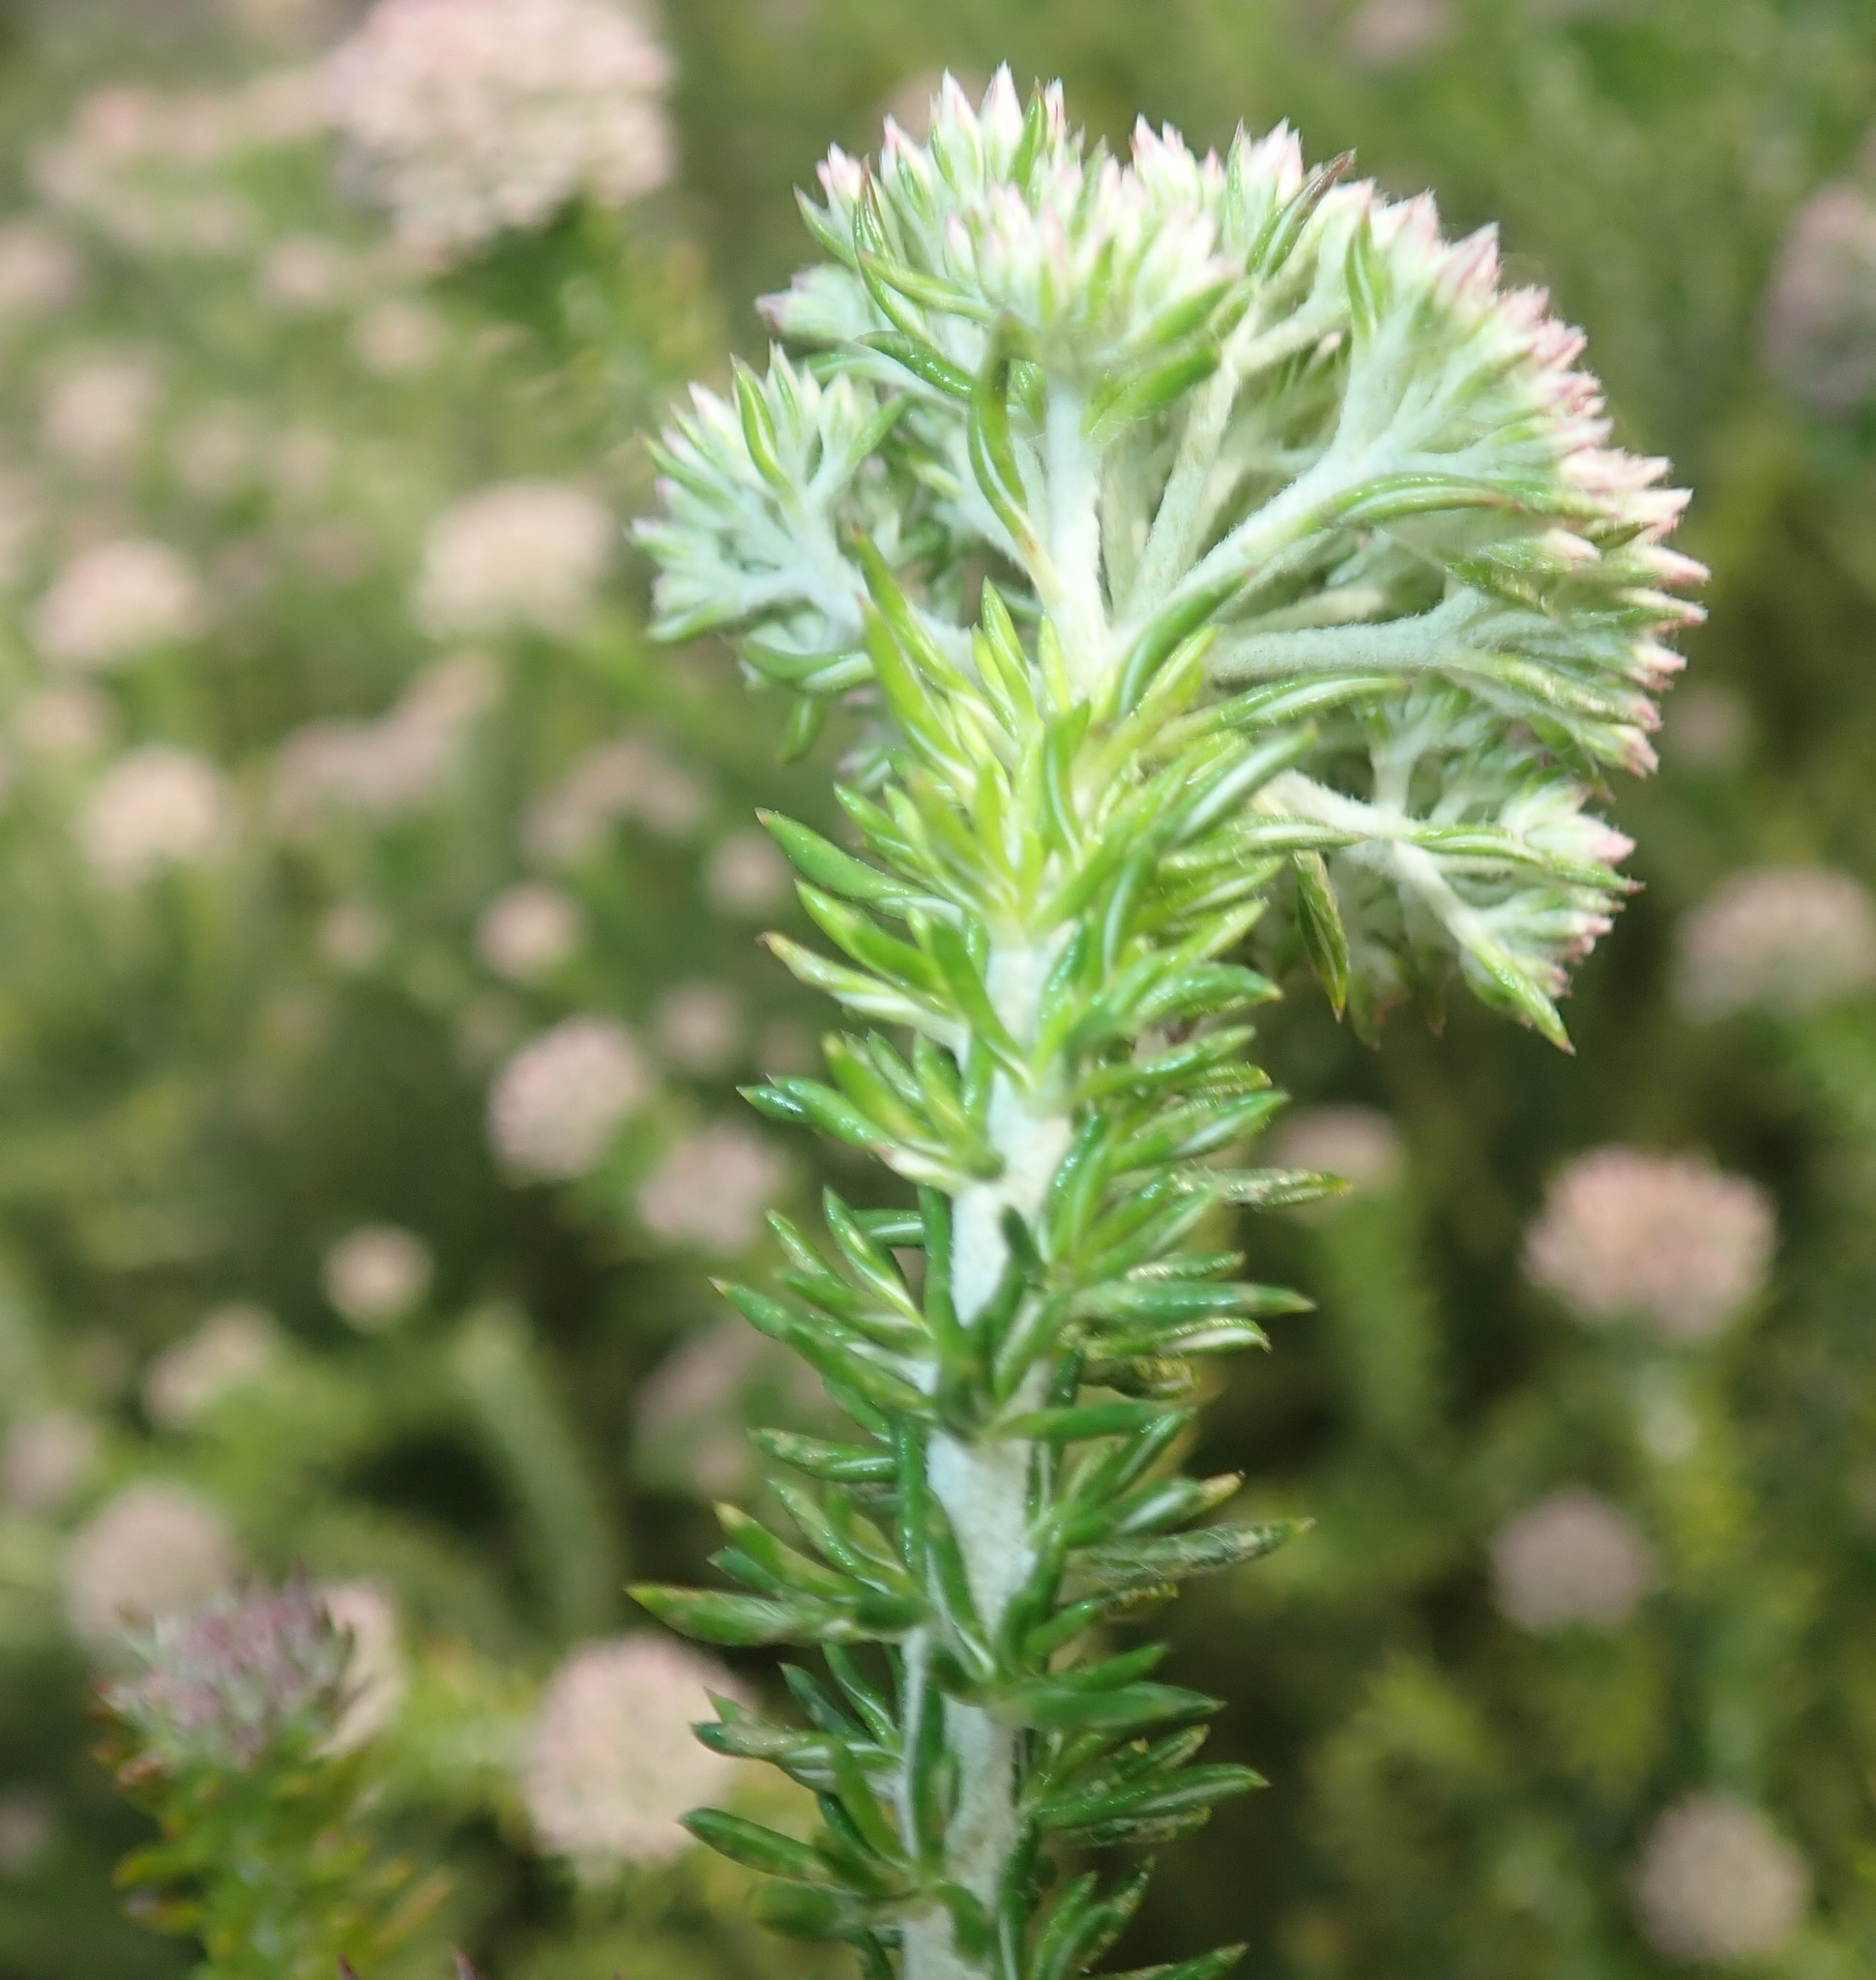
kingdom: Plantae
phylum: Tracheophyta
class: Magnoliopsida
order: Asterales
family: Asteraceae
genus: Metalasia
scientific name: Metalasia muricata
